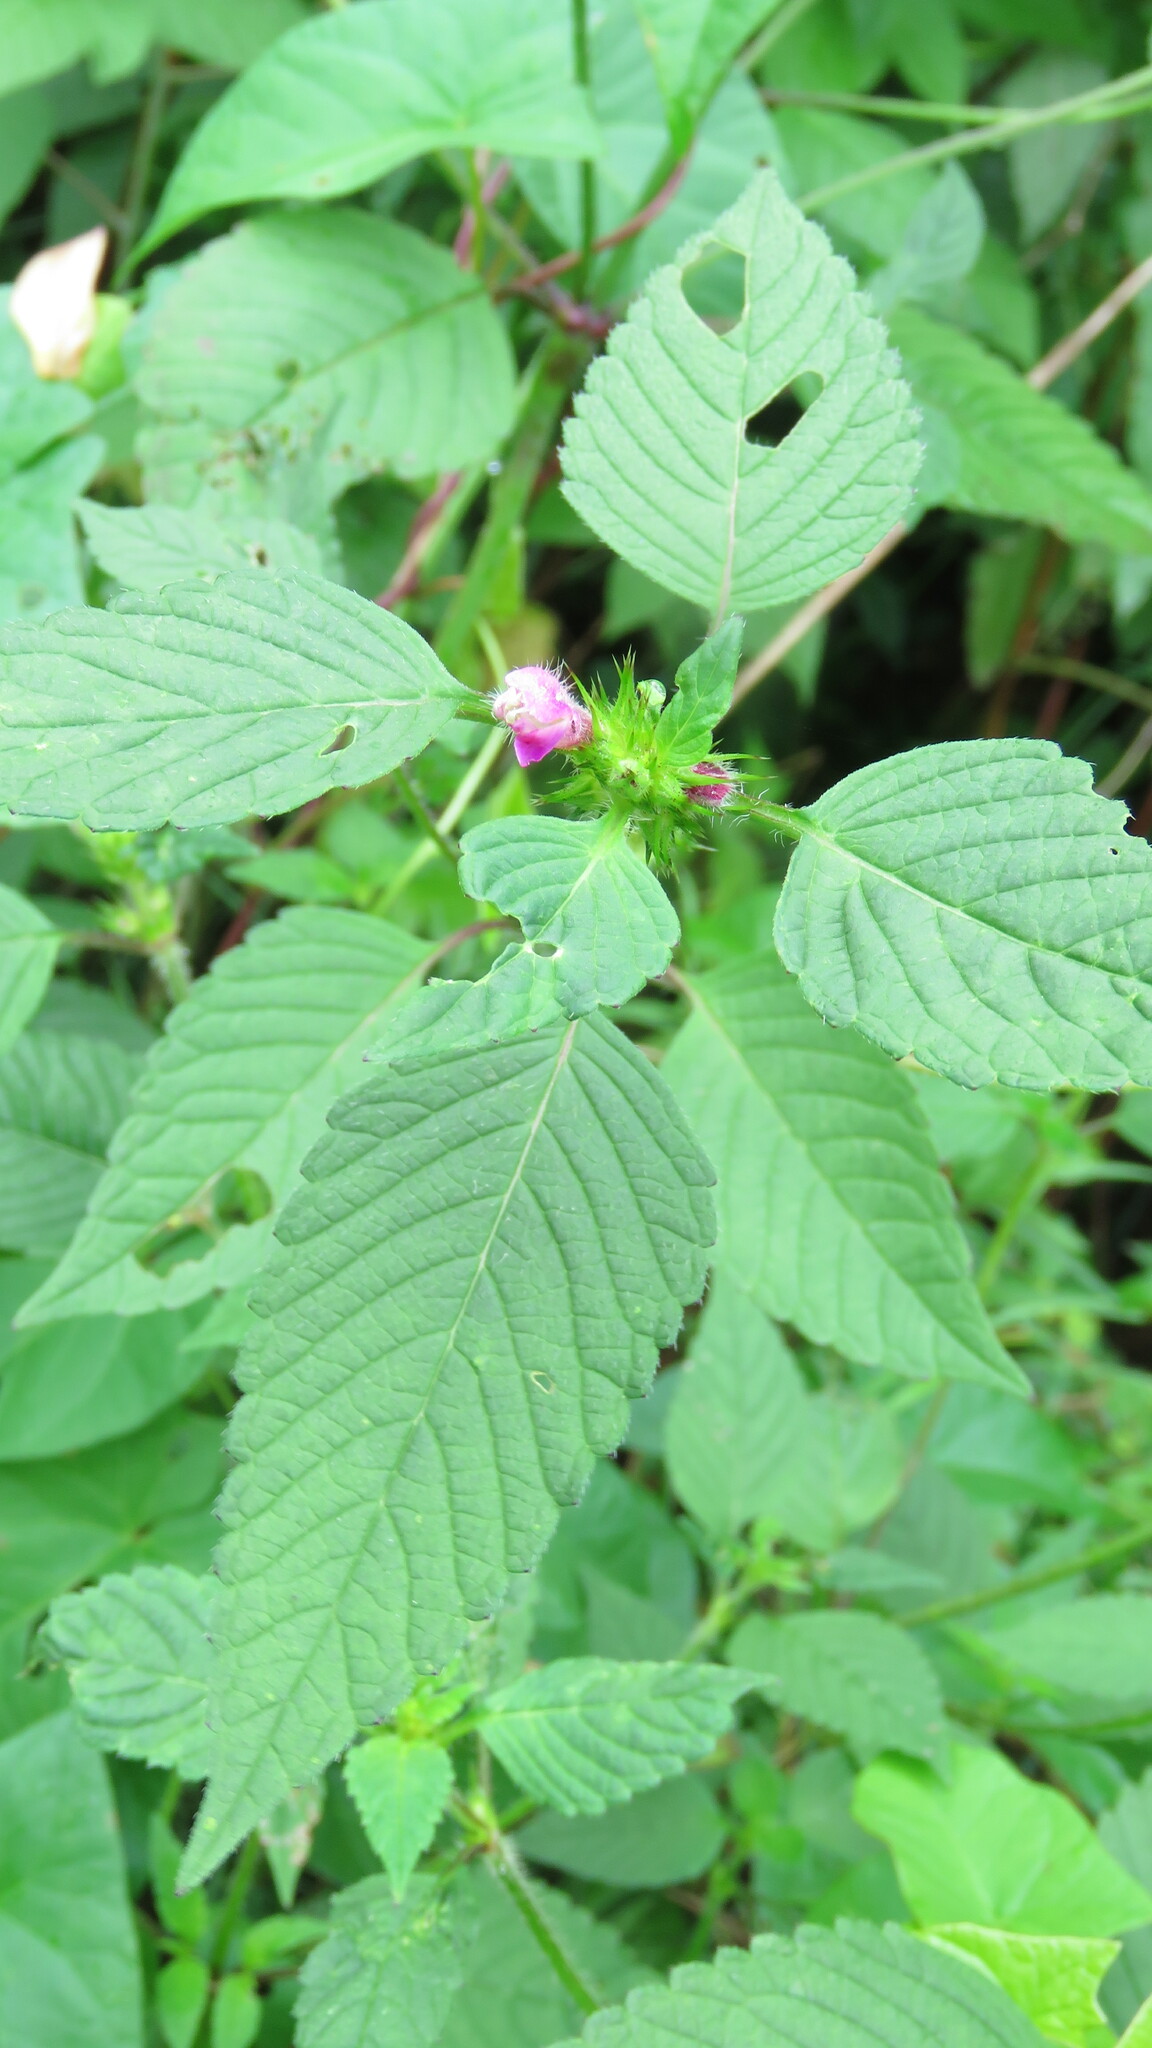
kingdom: Plantae
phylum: Tracheophyta
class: Magnoliopsida
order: Lamiales
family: Lamiaceae
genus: Galeopsis
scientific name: Galeopsis tetrahit
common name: Common hemp-nettle
